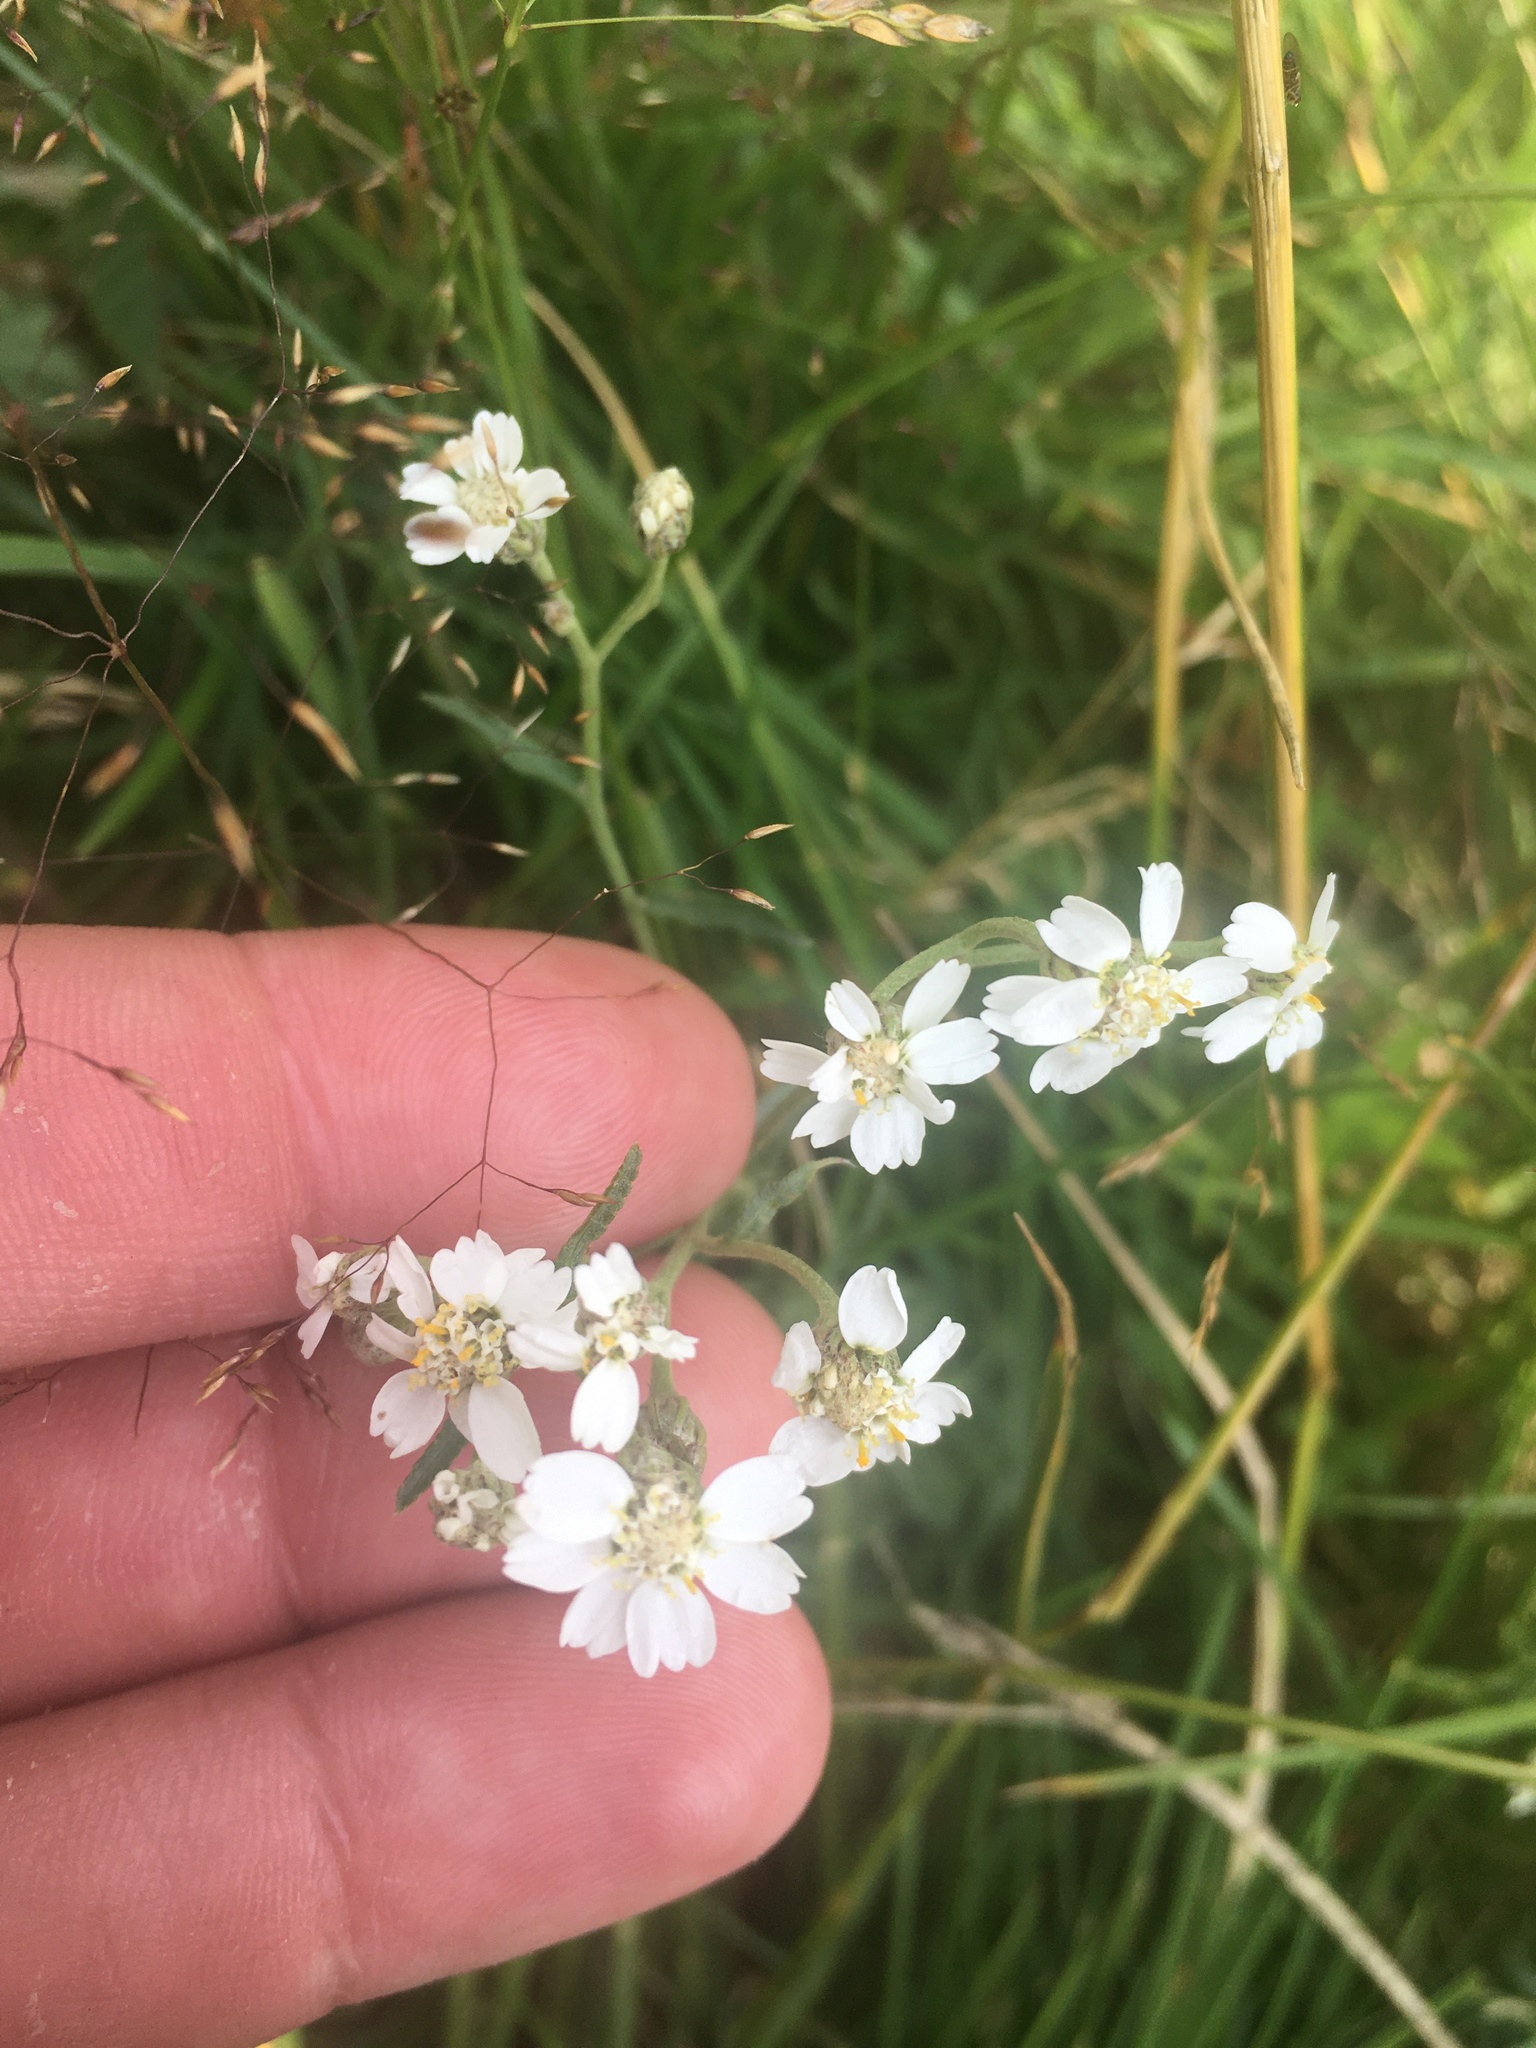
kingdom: Plantae
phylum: Tracheophyta
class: Magnoliopsida
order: Asterales
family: Asteraceae
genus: Achillea
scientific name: Achillea ptarmica
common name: Sneezeweed
